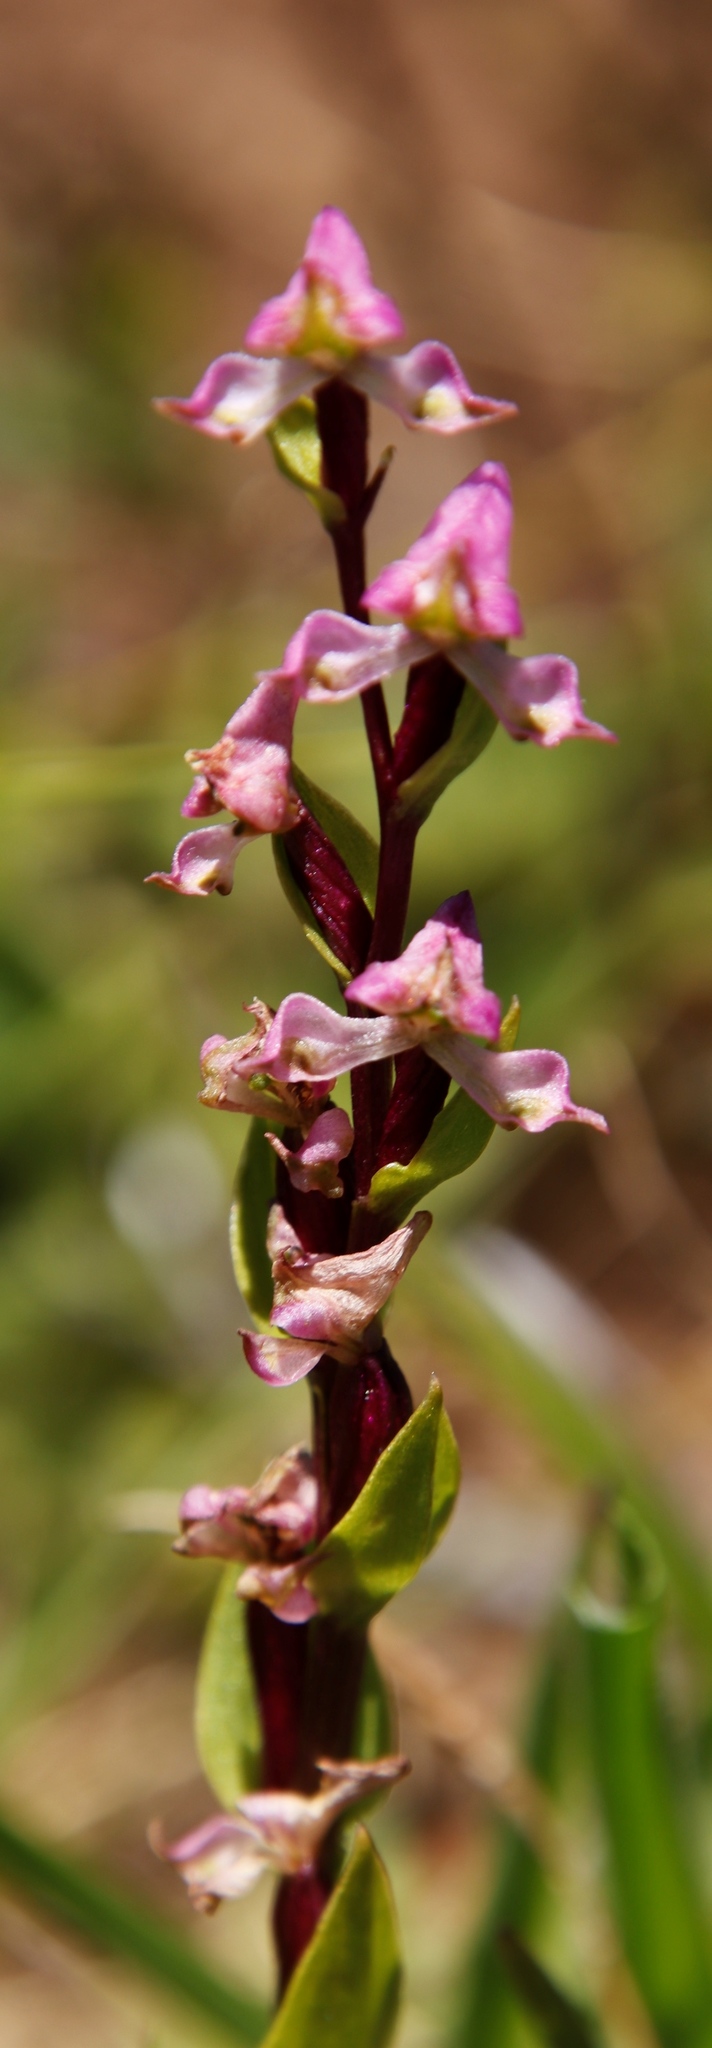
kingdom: Plantae
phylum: Tracheophyta
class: Liliopsida
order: Asparagales
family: Orchidaceae
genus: Disperis
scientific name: Disperis tysonii
